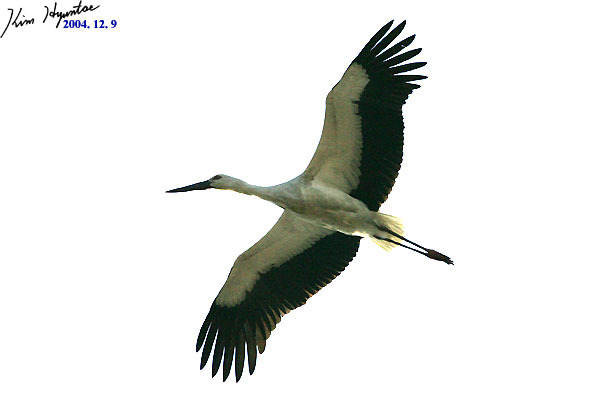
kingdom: Animalia
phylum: Chordata
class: Aves
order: Ciconiiformes
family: Ciconiidae
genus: Ciconia
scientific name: Ciconia boyciana
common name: Oriental stork
